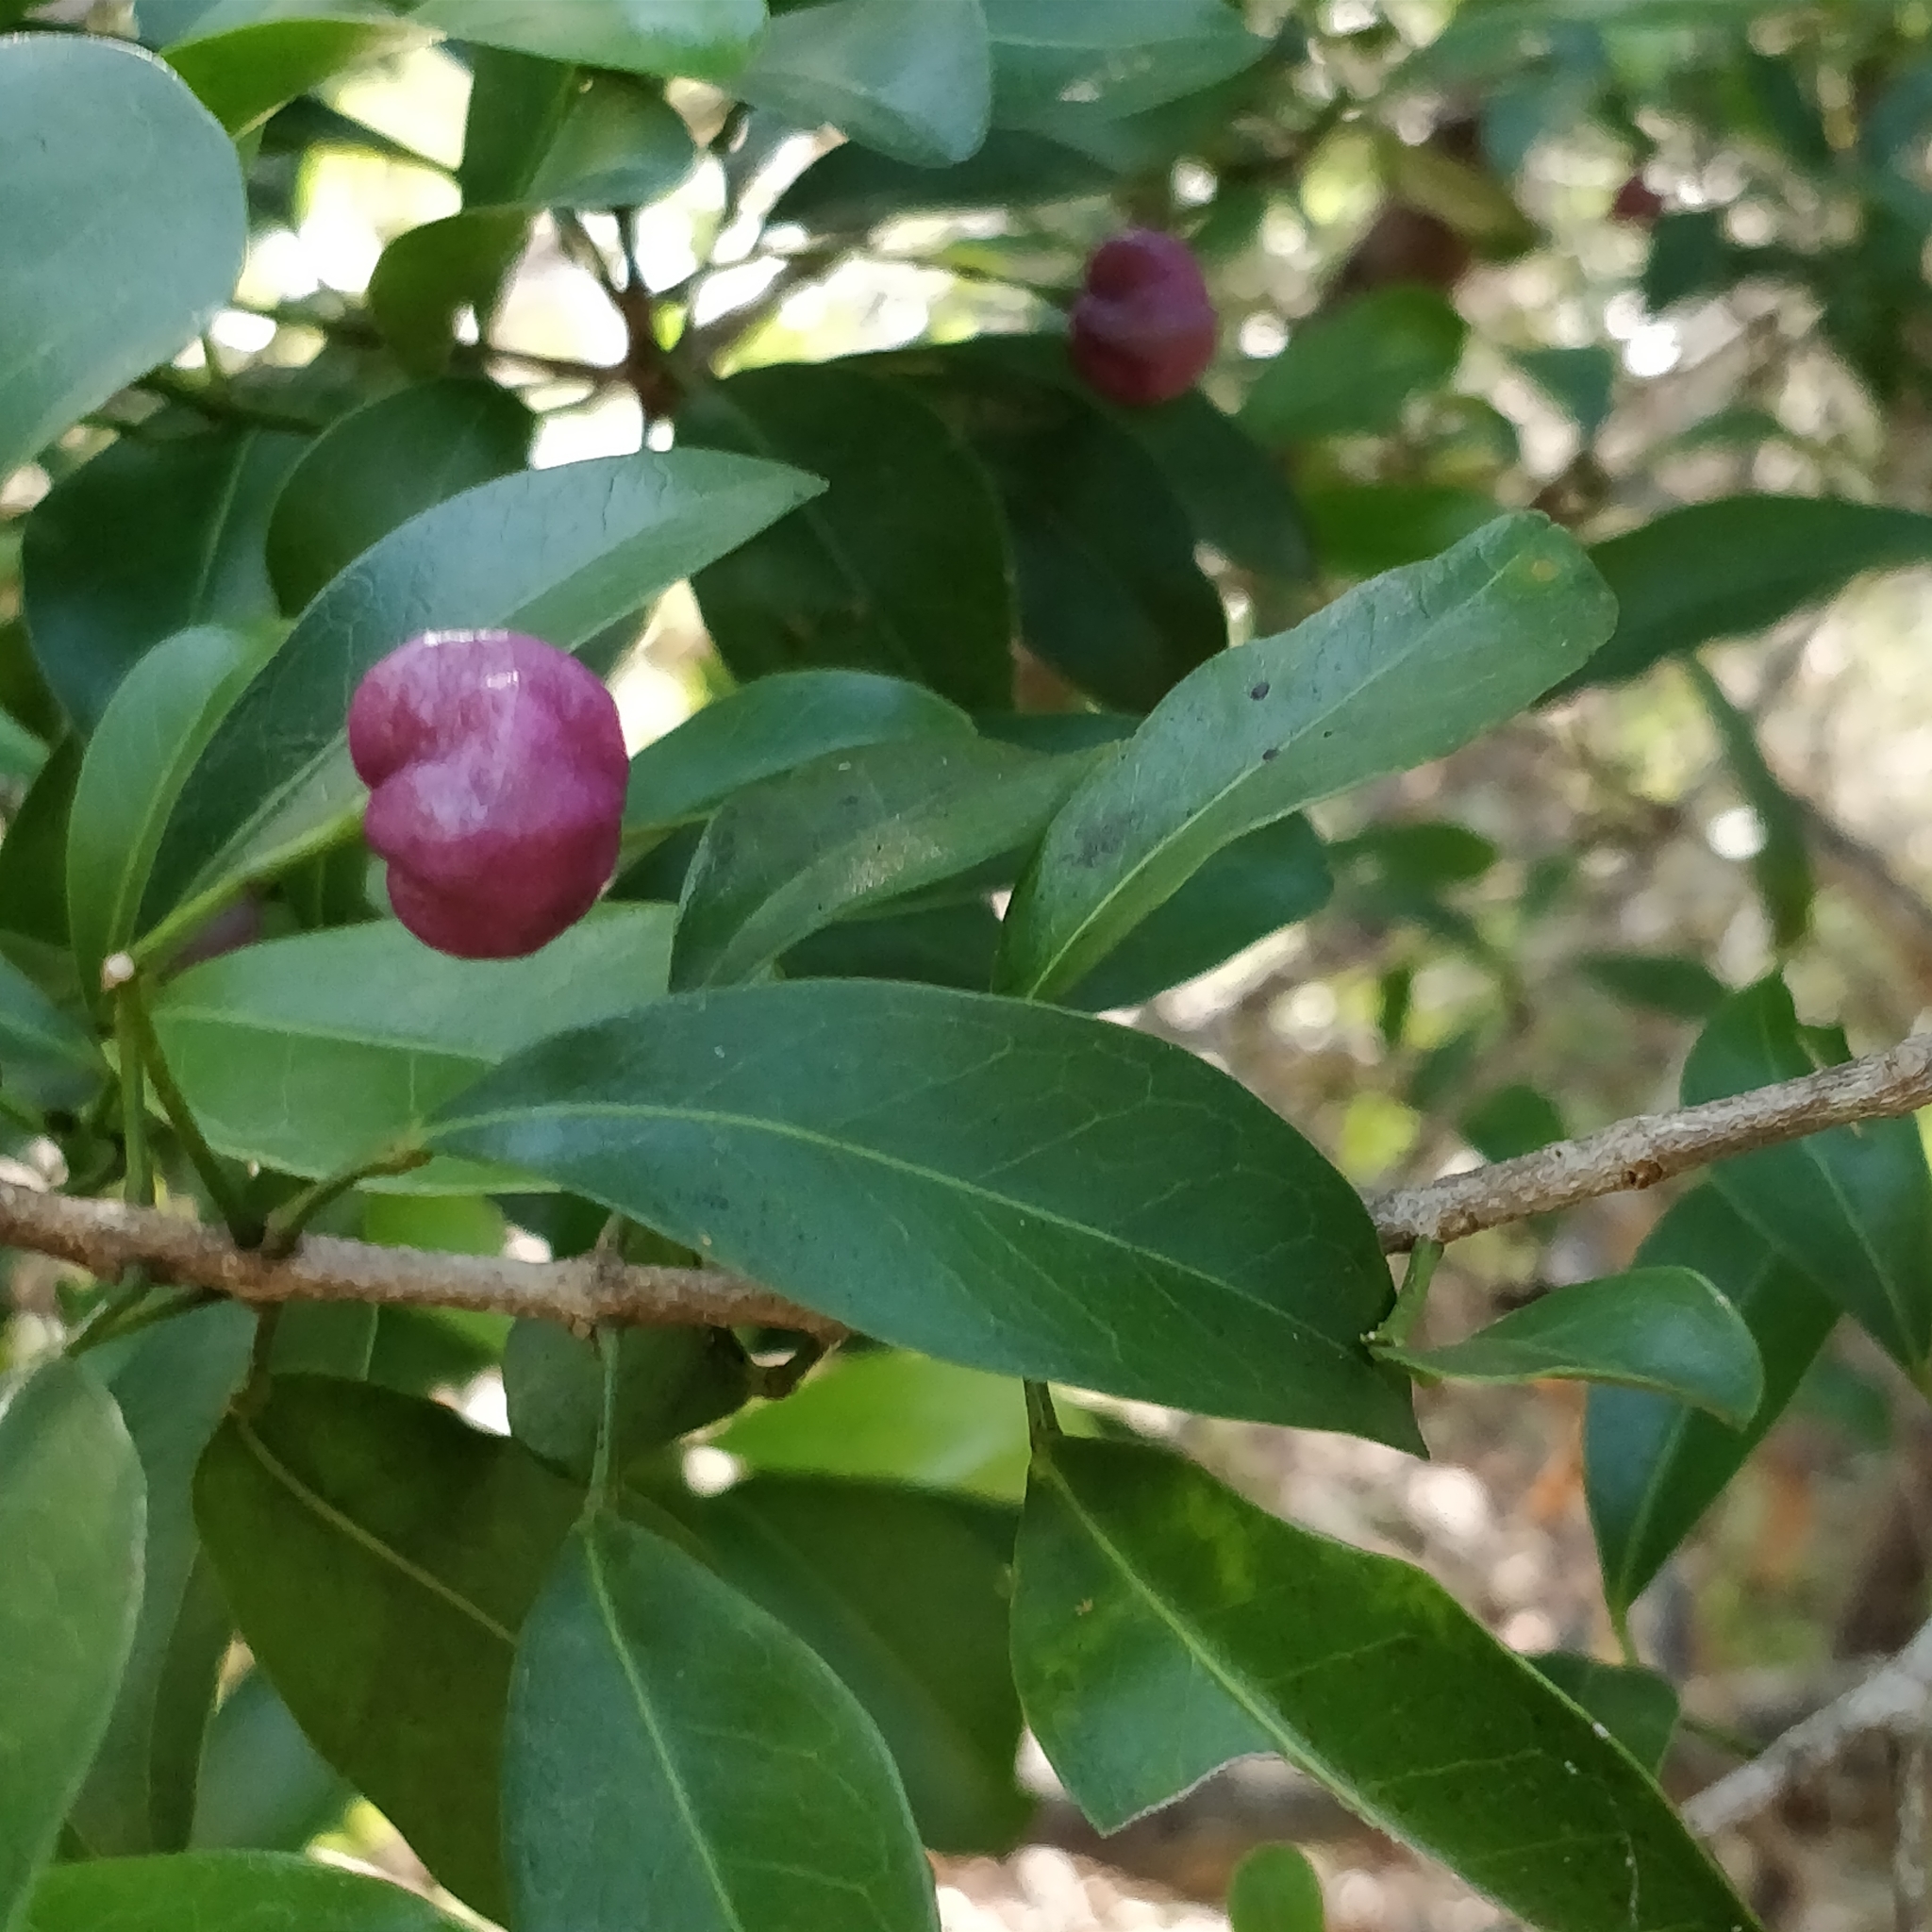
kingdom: Plantae
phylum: Tracheophyta
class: Magnoliopsida
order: Sapindales
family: Rutaceae
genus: Acronychia
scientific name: Acronychia laevis
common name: Hard aspen
